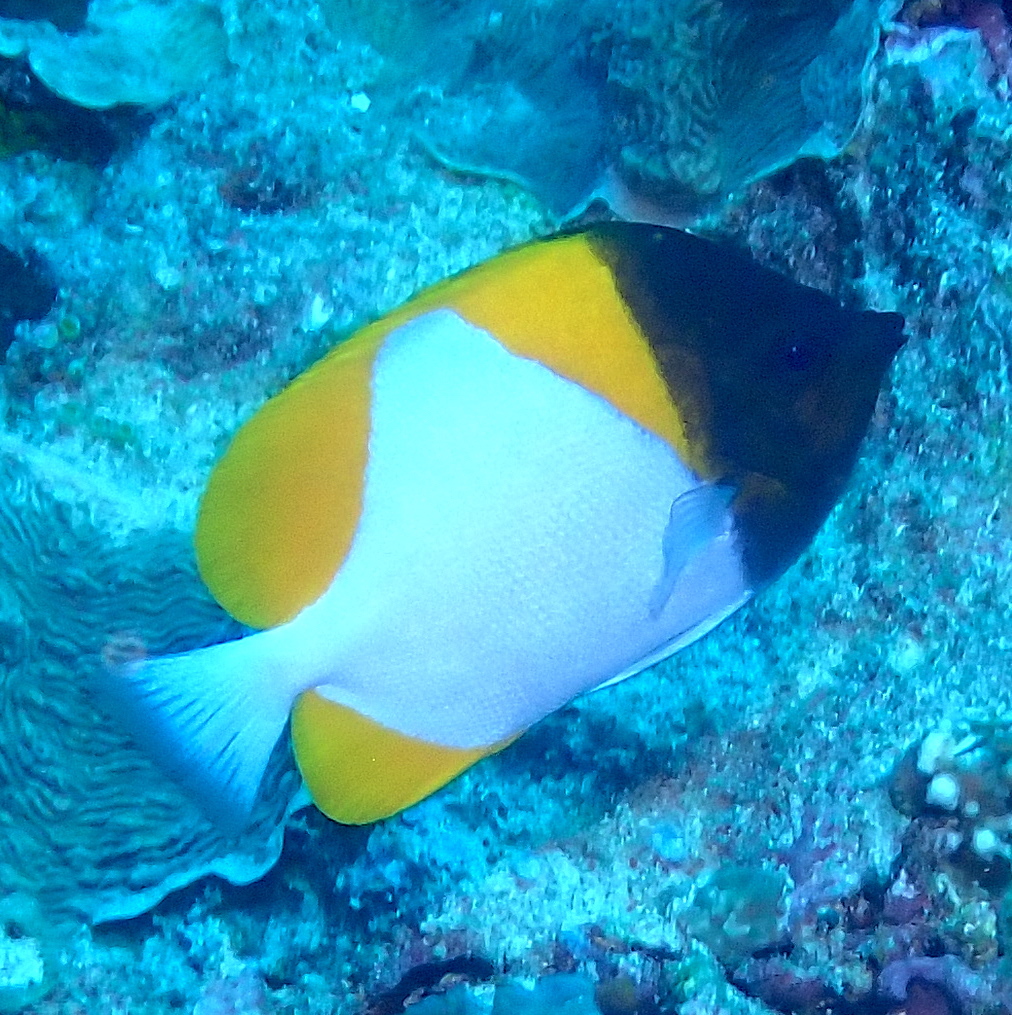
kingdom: Animalia
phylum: Chordata
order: Perciformes
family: Chaetodontidae
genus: Hemitaurichthys
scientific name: Hemitaurichthys polylepis
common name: Brushytoothed butterflyfish
